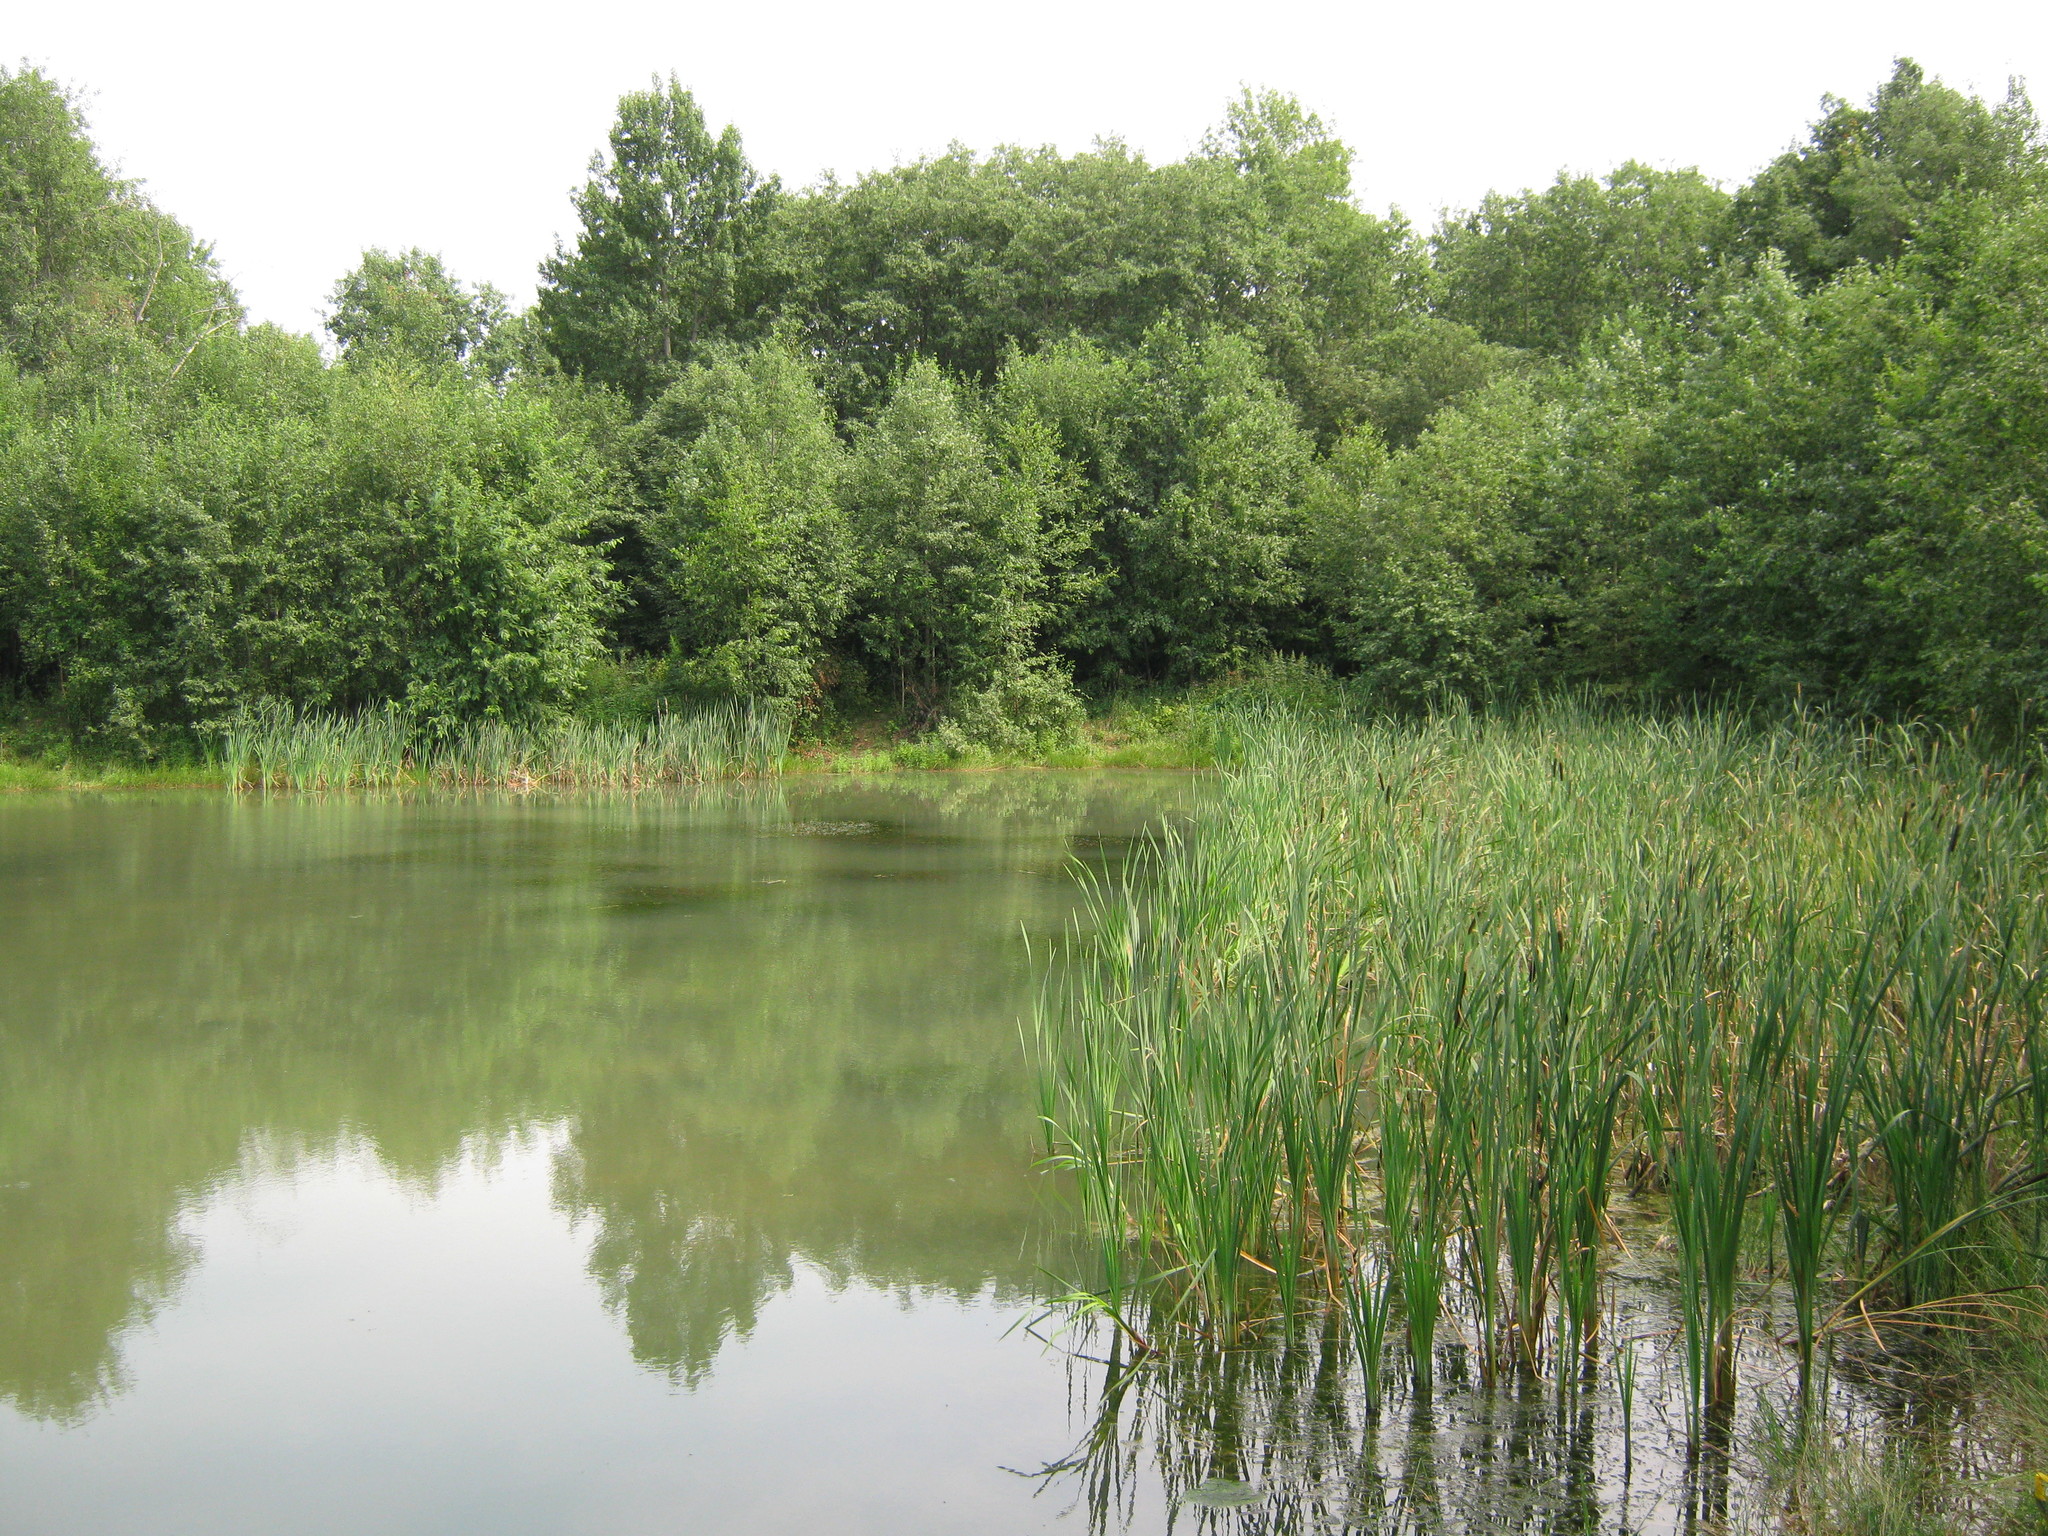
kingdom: Plantae
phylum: Tracheophyta
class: Liliopsida
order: Poales
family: Typhaceae
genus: Typha
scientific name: Typha latifolia
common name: Broadleaf cattail
